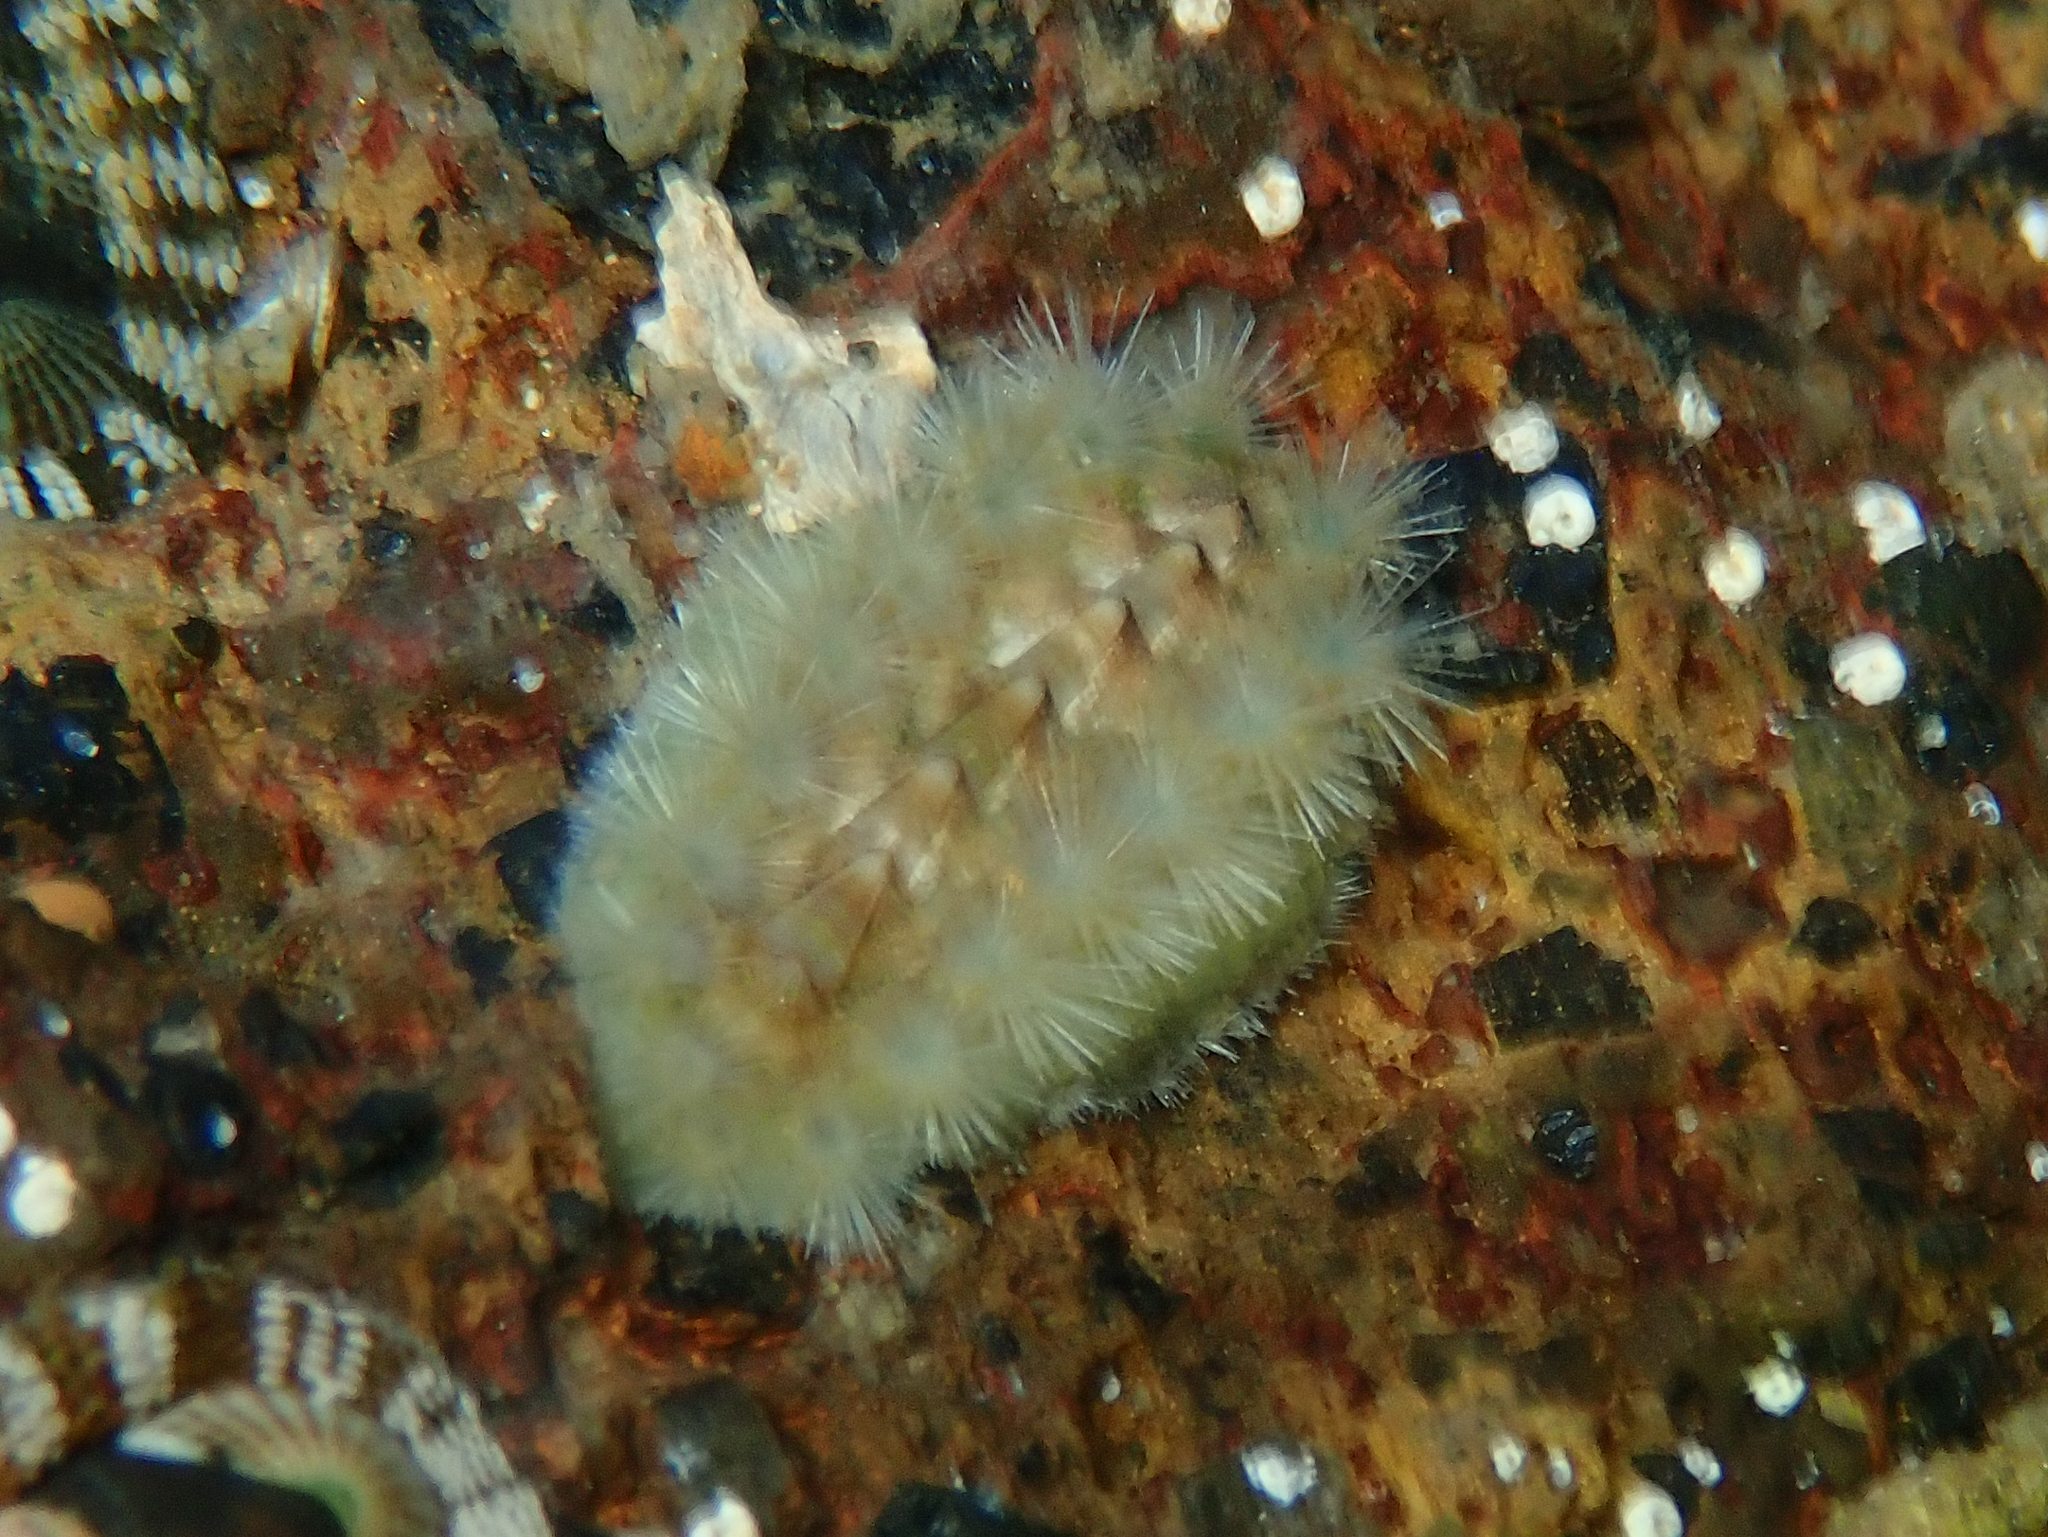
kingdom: Animalia
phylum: Mollusca
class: Polyplacophora
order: Chitonida
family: Acanthochitonidae
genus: Acanthochitona
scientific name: Acanthochitona zelandica
